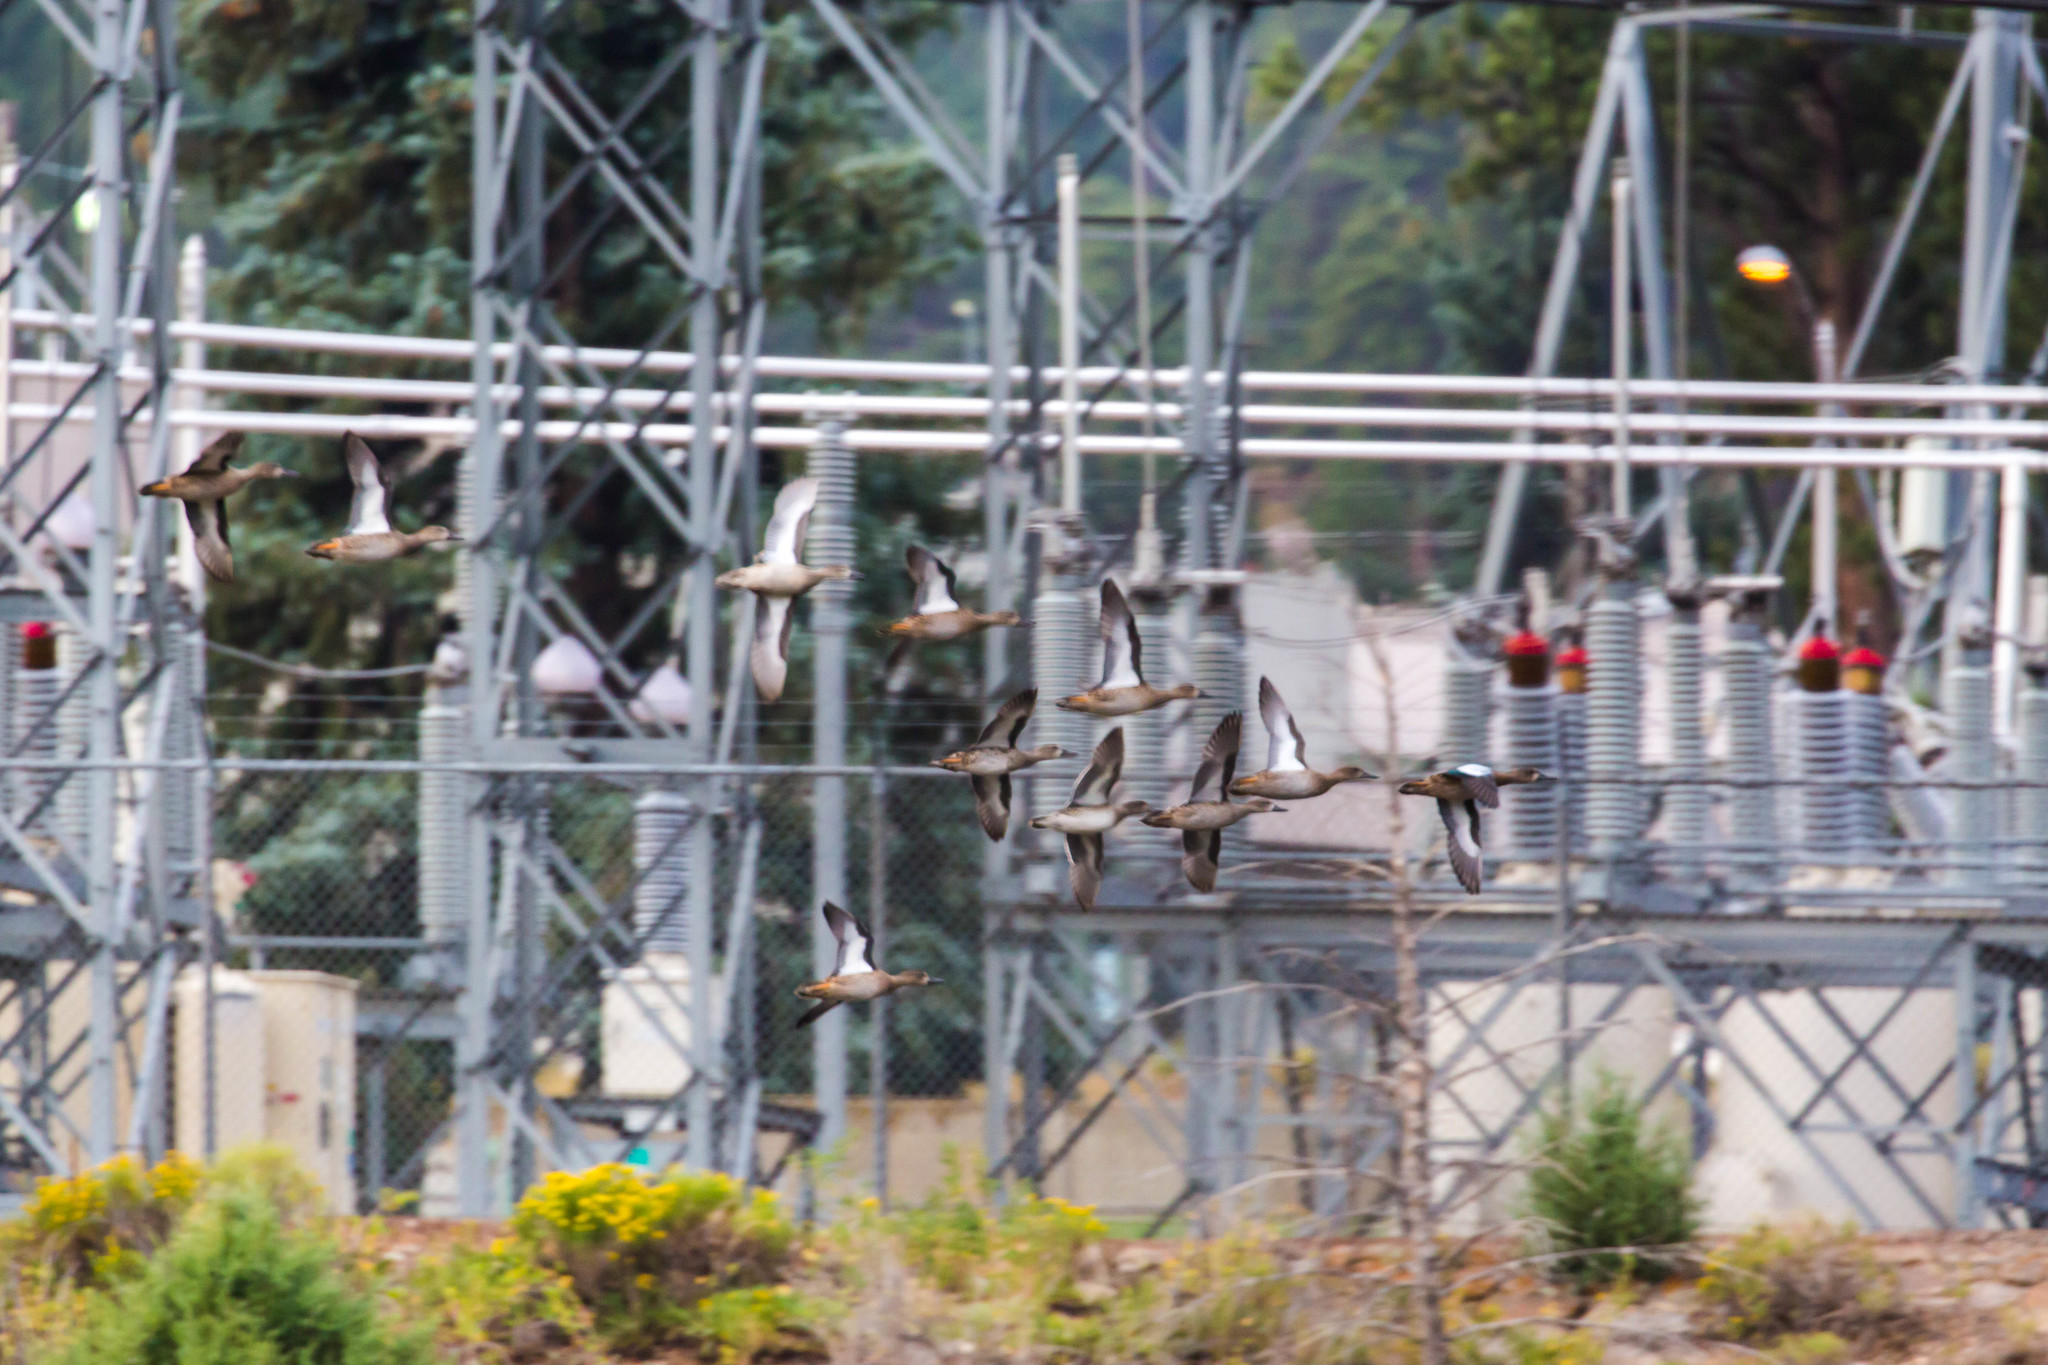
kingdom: Animalia
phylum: Chordata
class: Aves
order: Anseriformes
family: Anatidae
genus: Spatula
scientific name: Spatula discors
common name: Blue-winged teal
